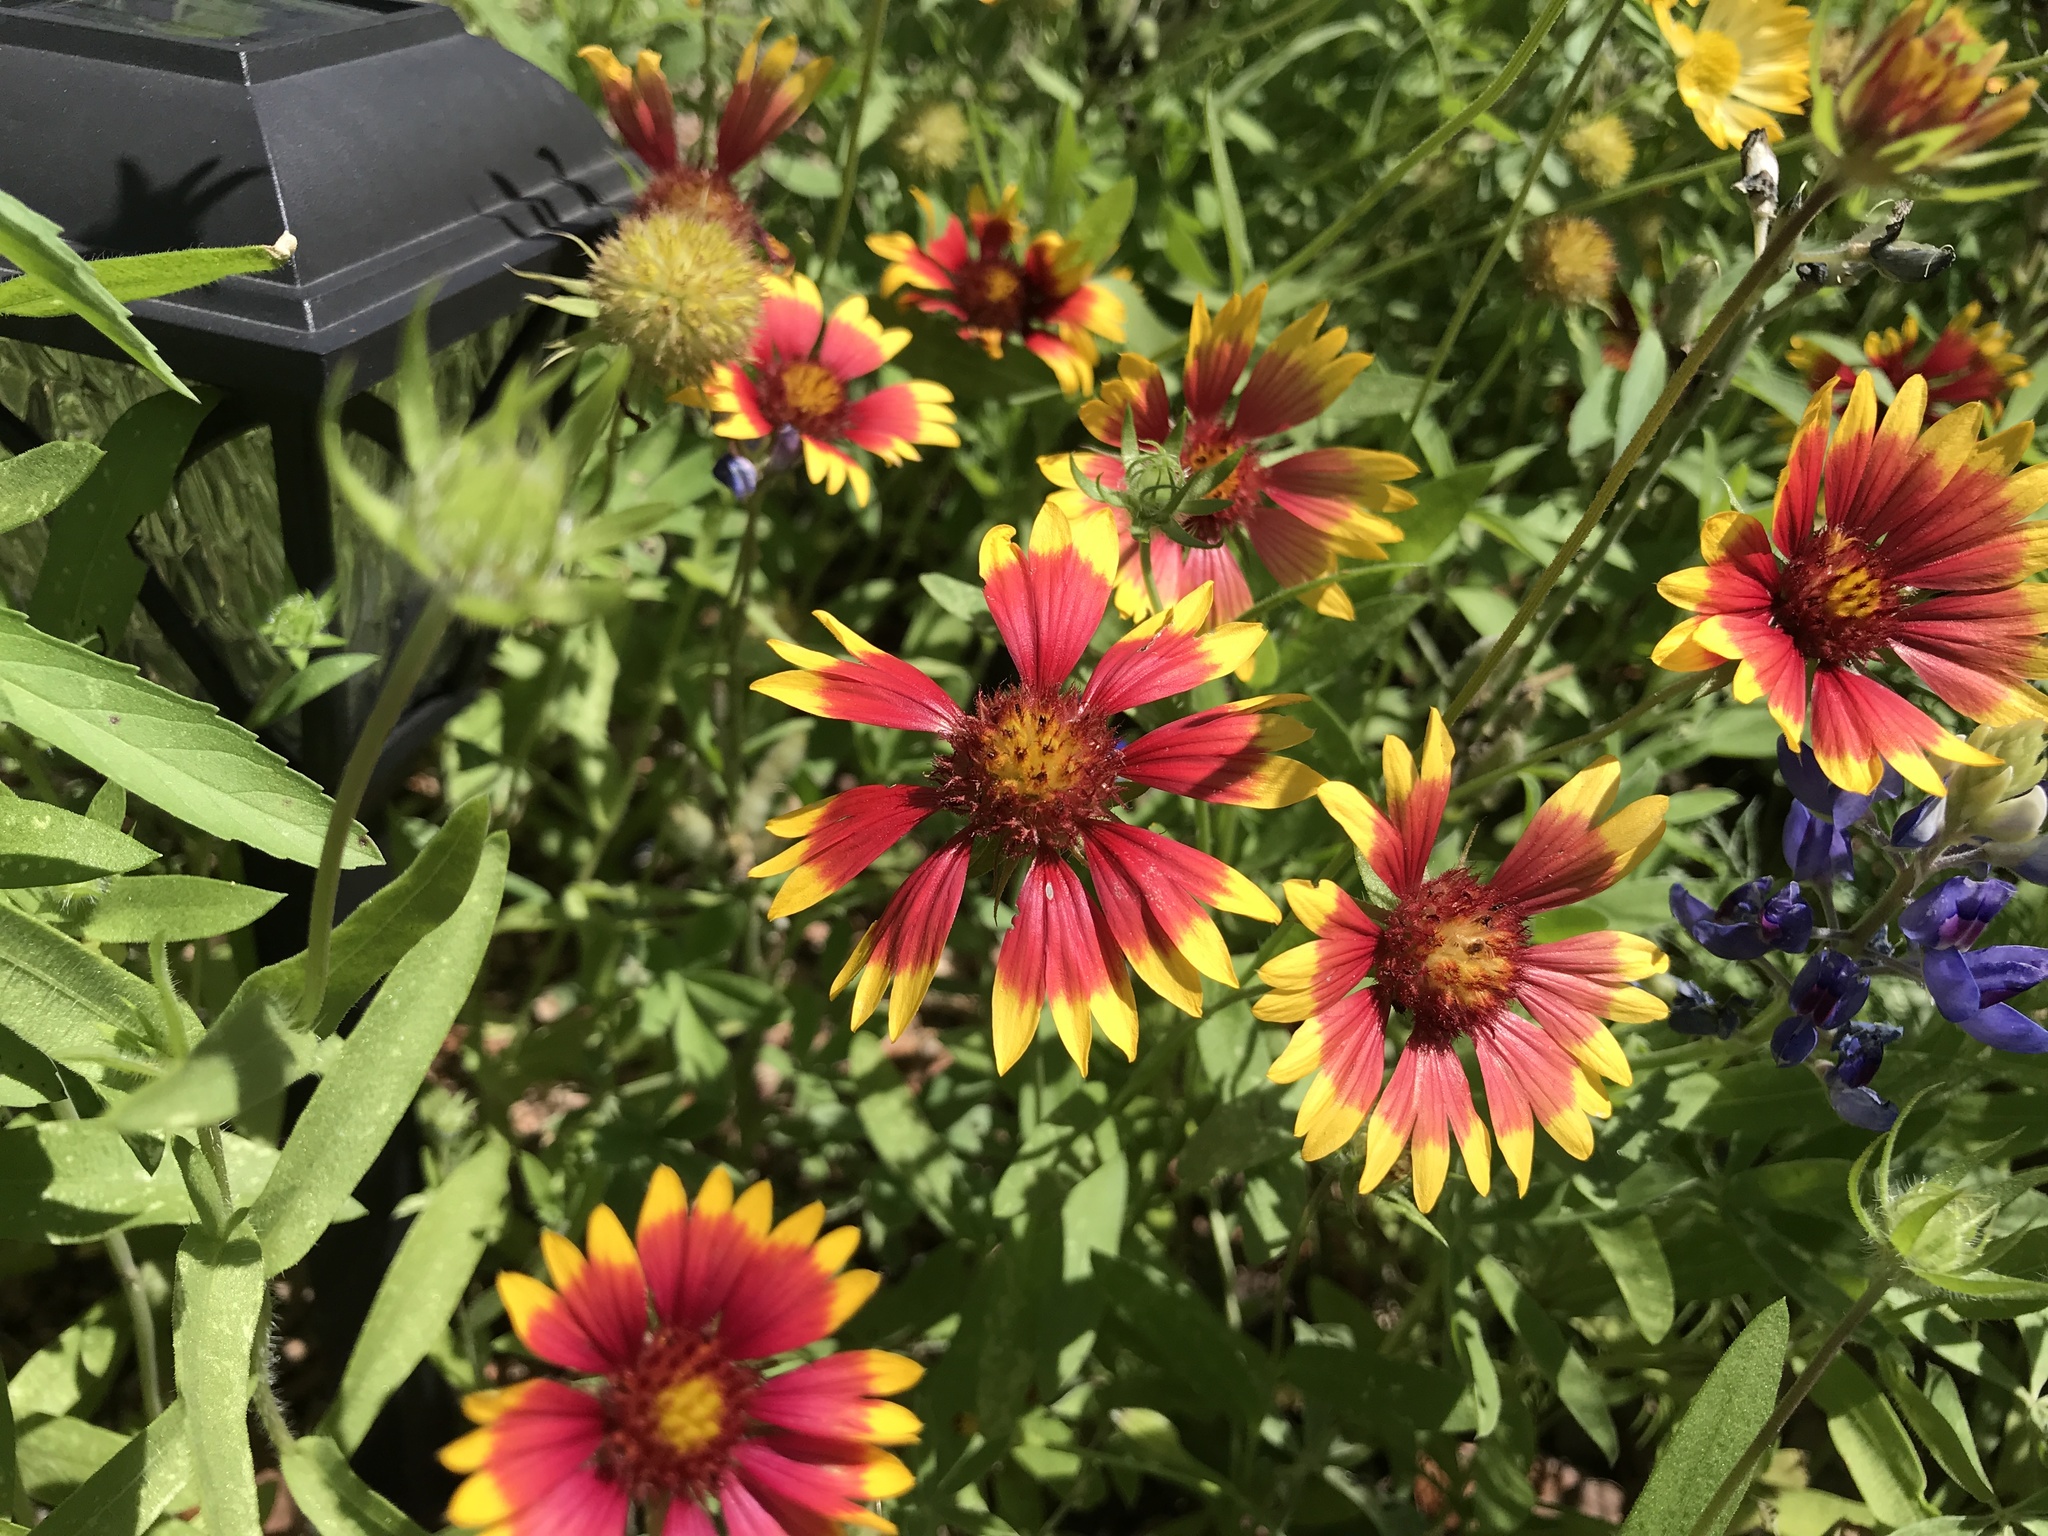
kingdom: Plantae
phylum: Tracheophyta
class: Magnoliopsida
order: Asterales
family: Asteraceae
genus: Gaillardia
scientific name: Gaillardia pulchella
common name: Firewheel
